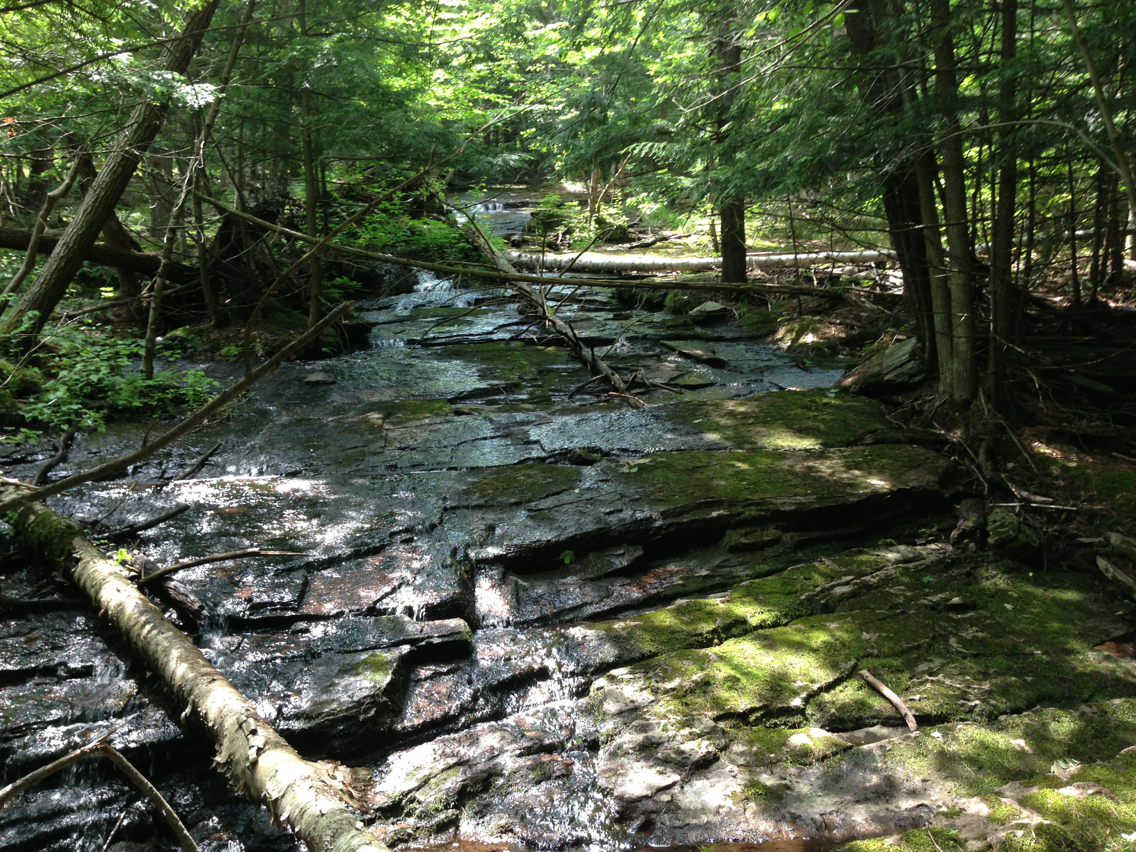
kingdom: Plantae
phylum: Tracheophyta
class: Pinopsida
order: Pinales
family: Pinaceae
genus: Tsuga
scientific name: Tsuga canadensis
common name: Eastern hemlock
